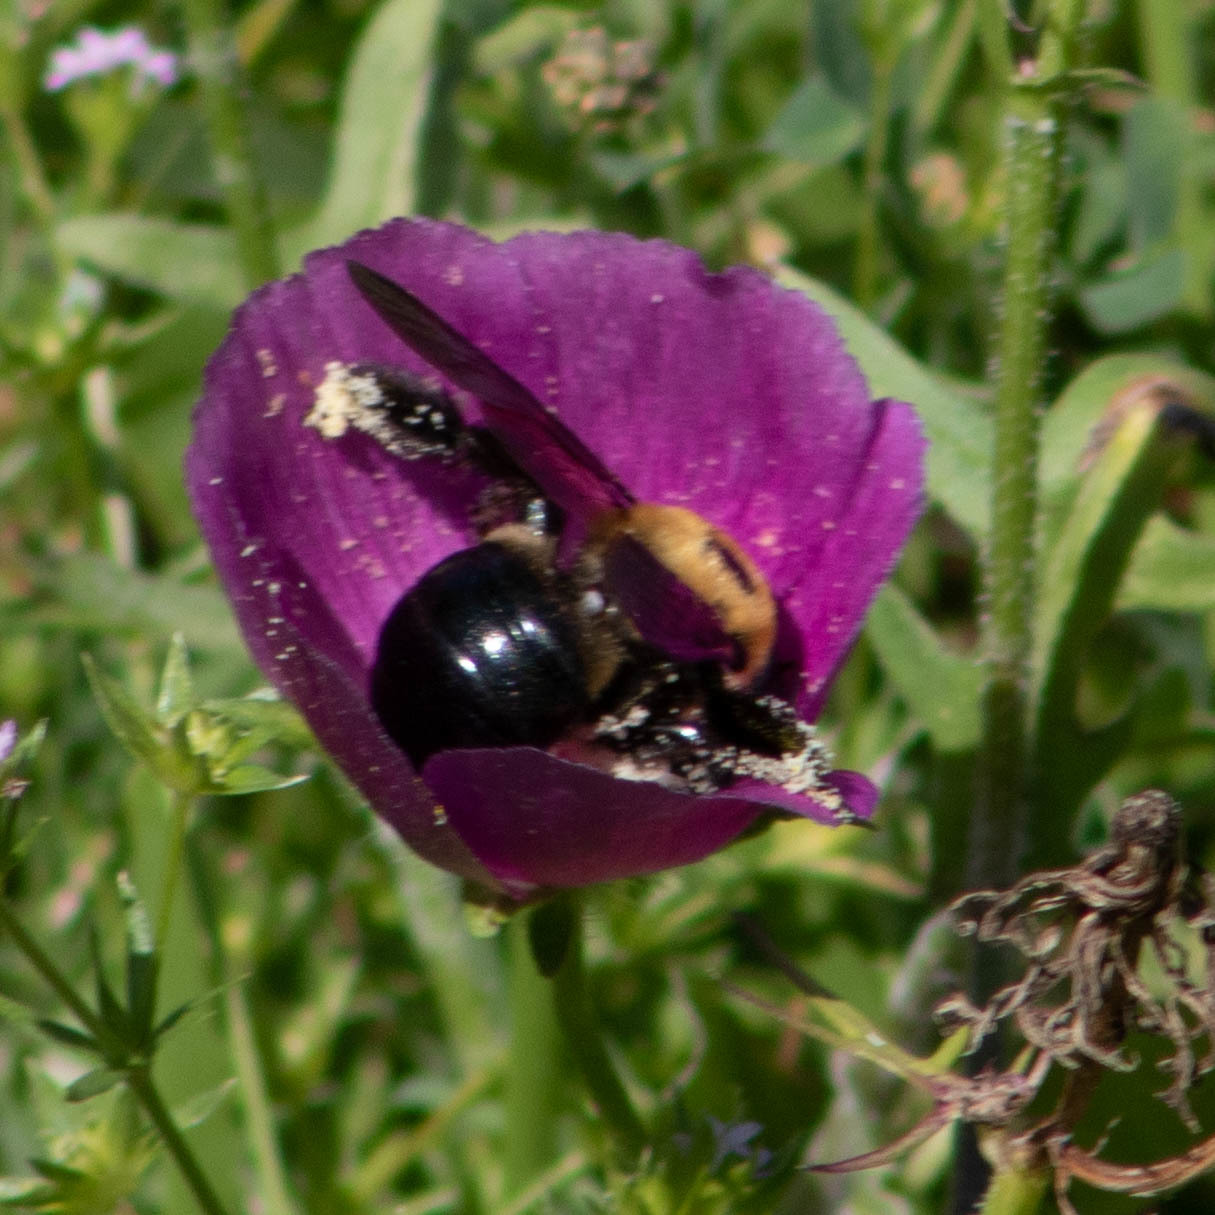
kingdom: Animalia
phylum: Arthropoda
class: Insecta
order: Hymenoptera
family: Apidae
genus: Xylocopa
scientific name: Xylocopa virginica
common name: Carpenter bee
